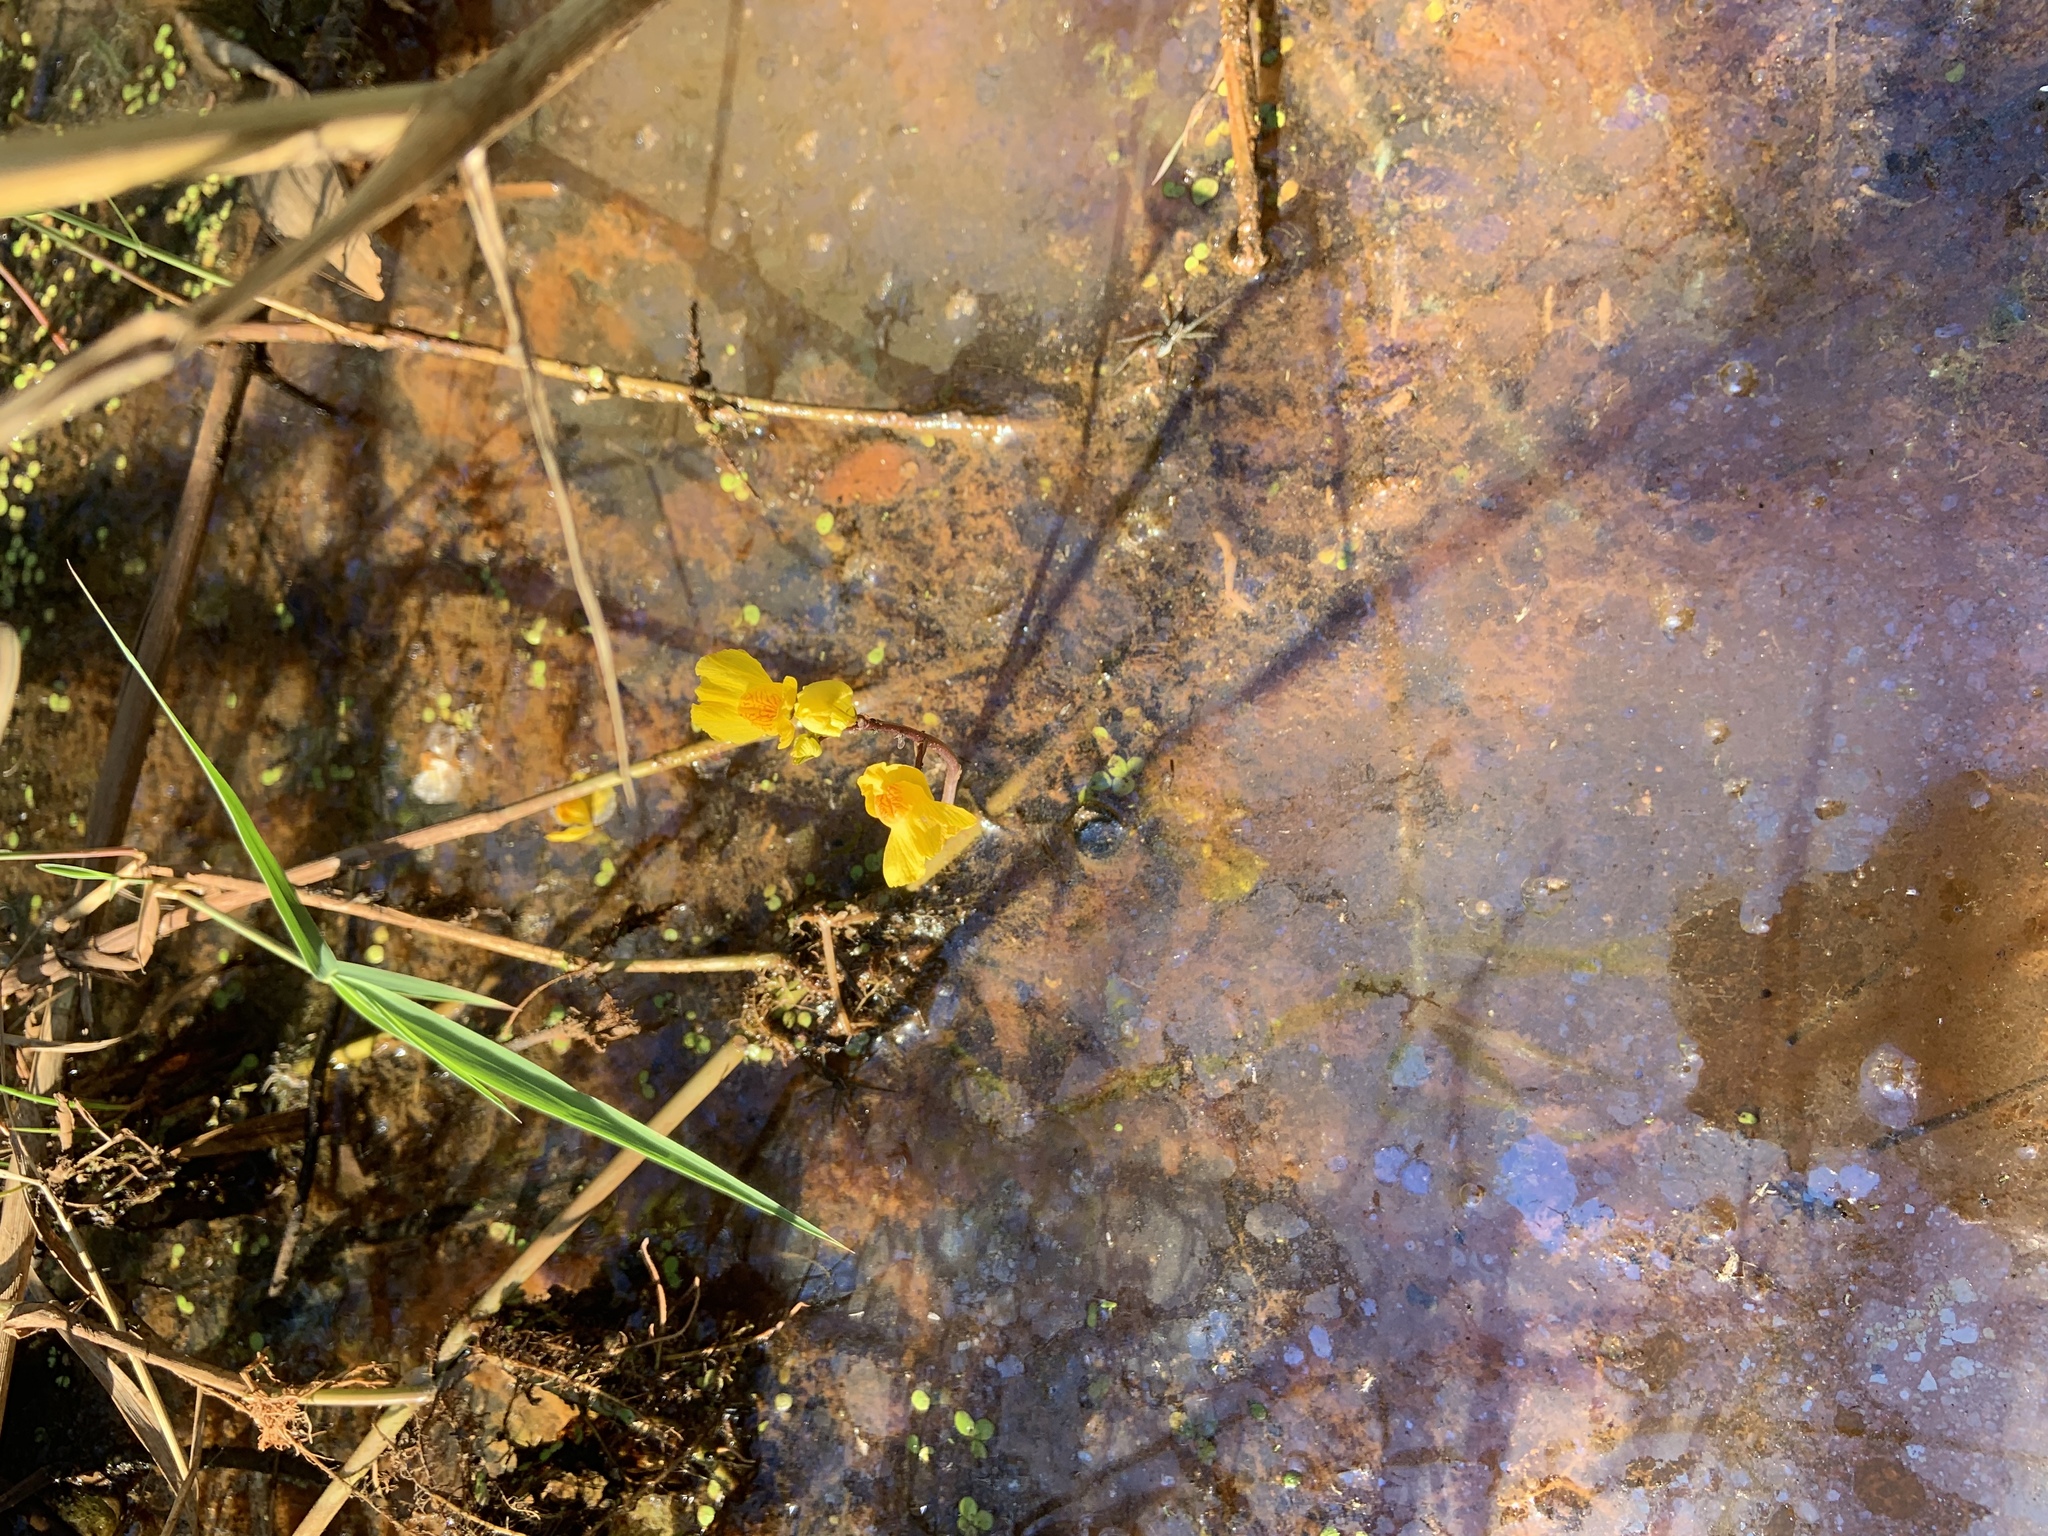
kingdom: Plantae
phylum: Tracheophyta
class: Magnoliopsida
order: Lamiales
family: Lentibulariaceae
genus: Utricularia
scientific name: Utricularia macrorhiza
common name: Common bladderwort
